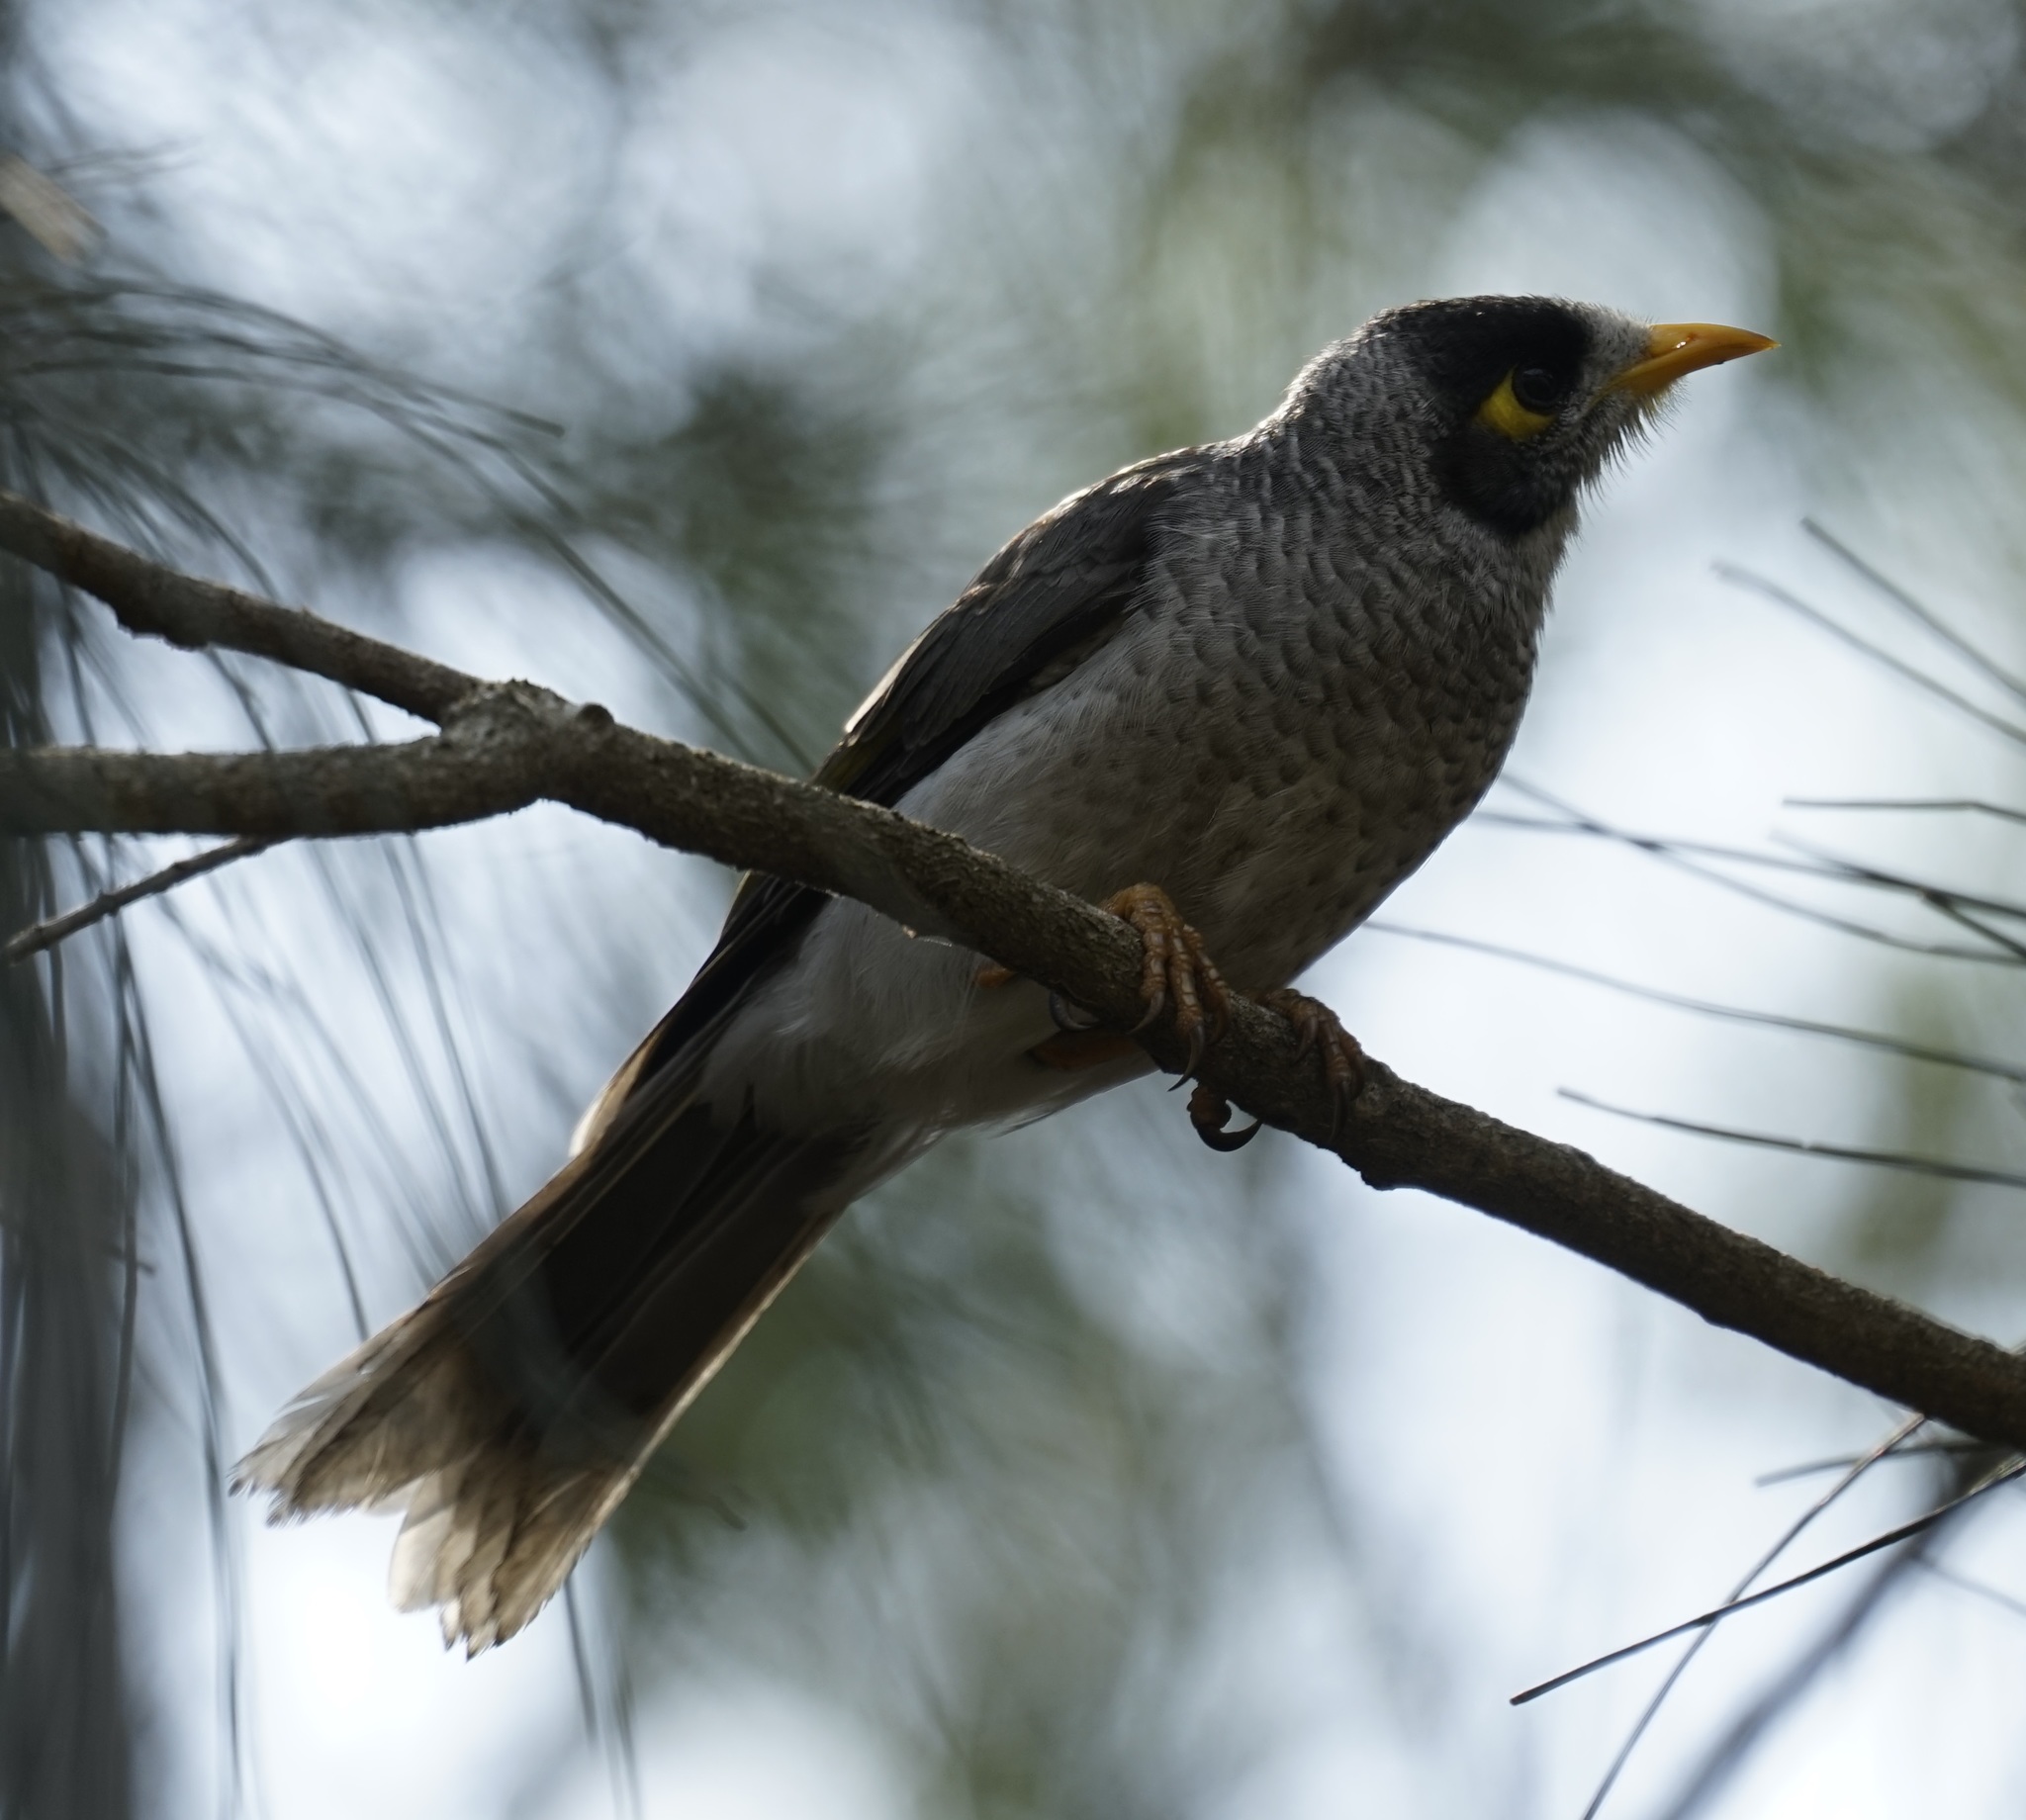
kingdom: Animalia
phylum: Chordata
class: Aves
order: Passeriformes
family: Meliphagidae
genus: Manorina
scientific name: Manorina melanocephala
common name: Noisy miner
